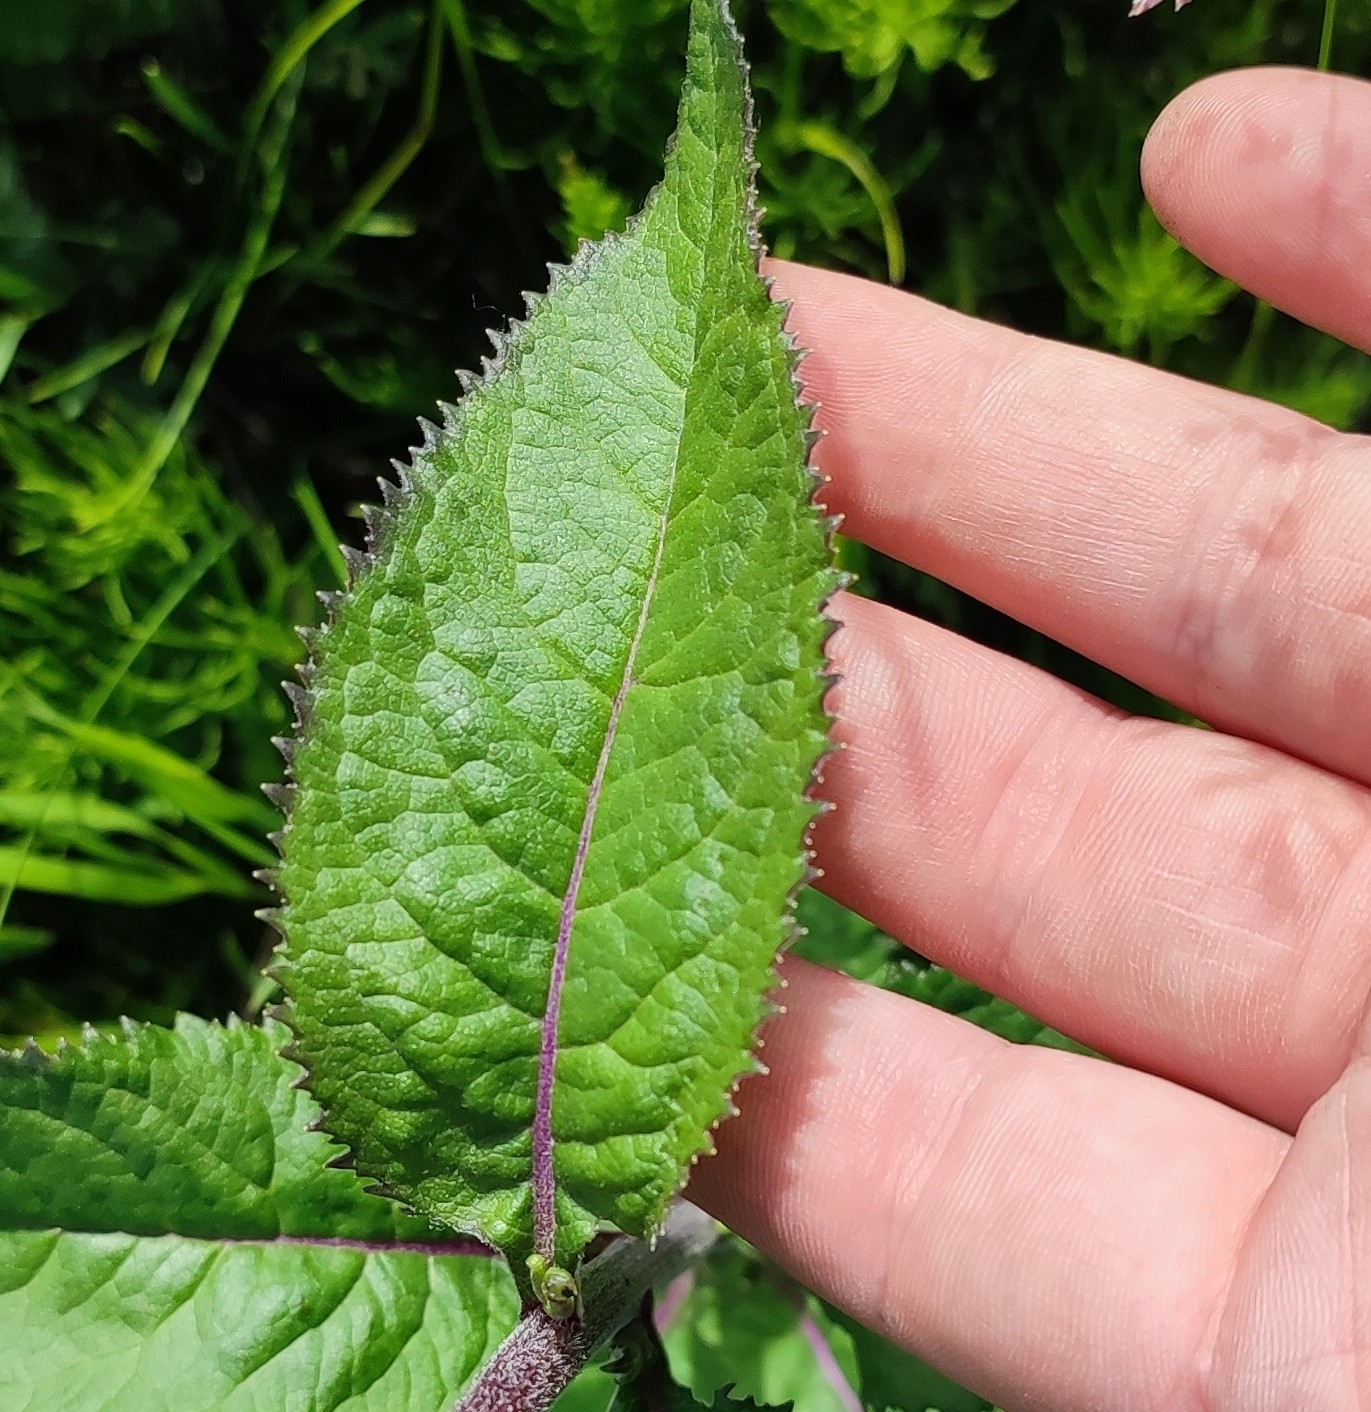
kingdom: Plantae
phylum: Tracheophyta
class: Magnoliopsida
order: Asterales
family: Asteraceae
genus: Senecio
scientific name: Senecio nemorensis
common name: Alpine ragwort
